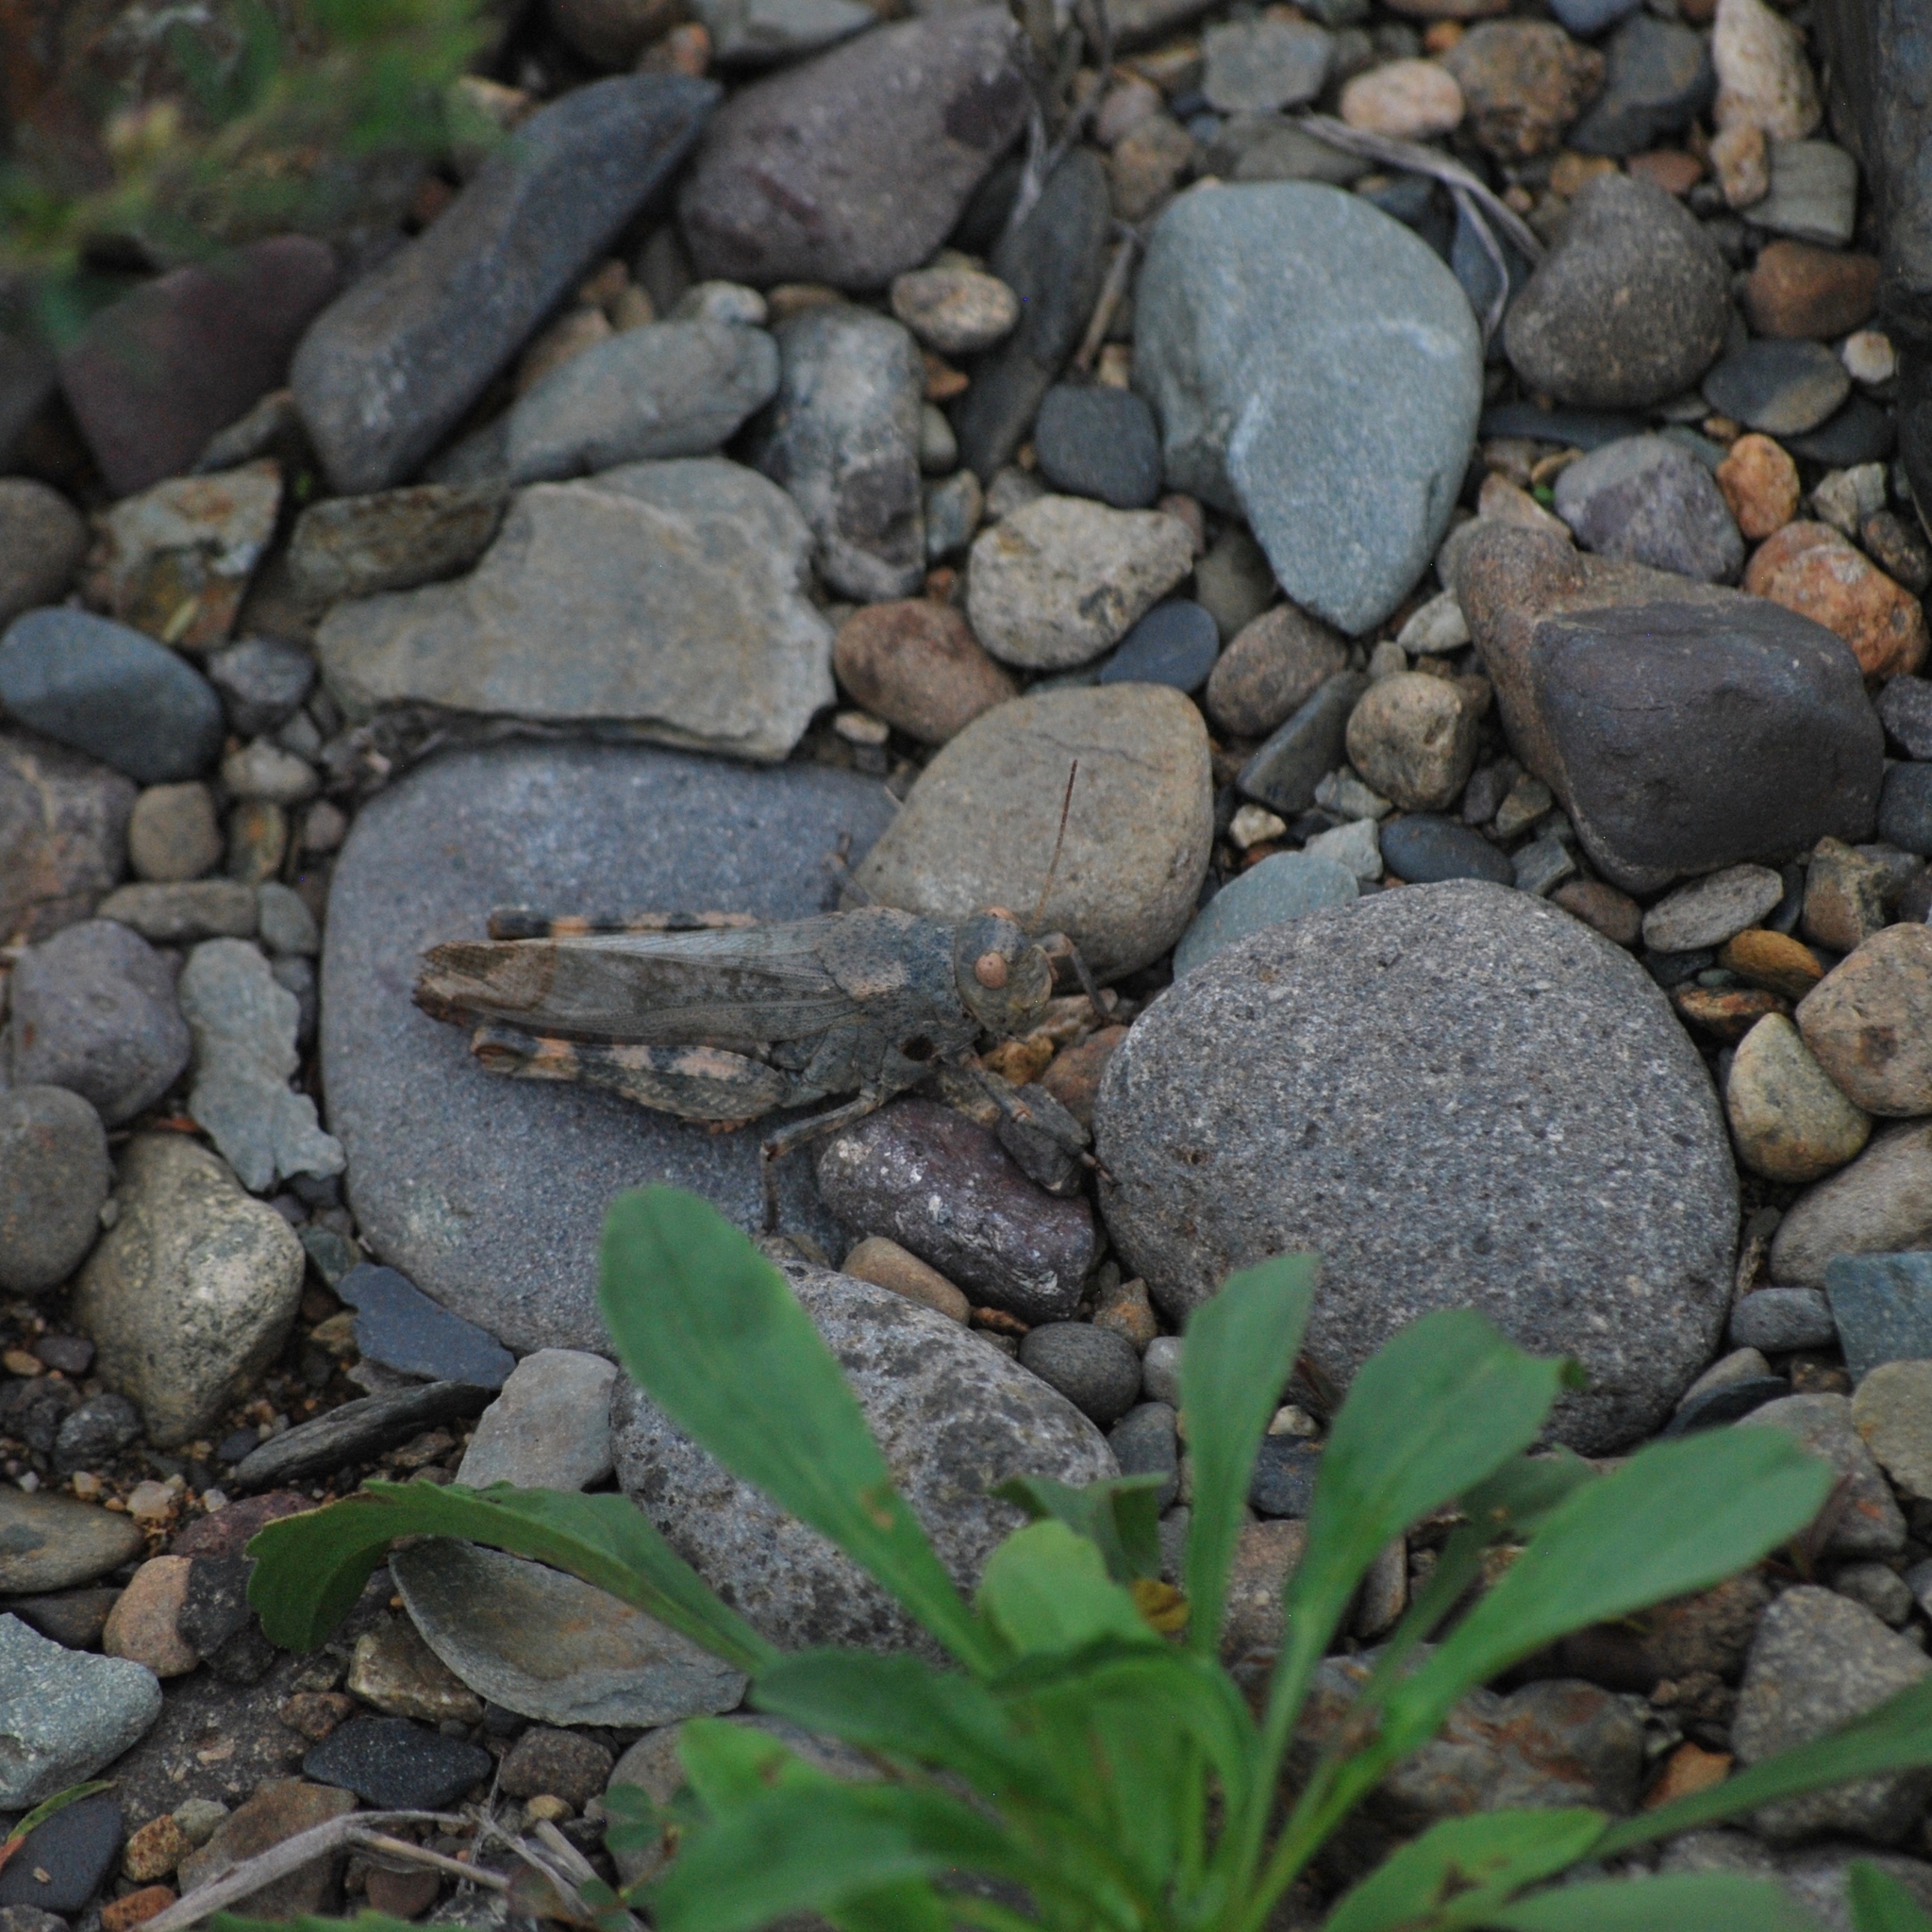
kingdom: Animalia
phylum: Arthropoda
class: Insecta
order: Orthoptera
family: Acrididae
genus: Bryodemella
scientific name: Bryodemella tuberculata
